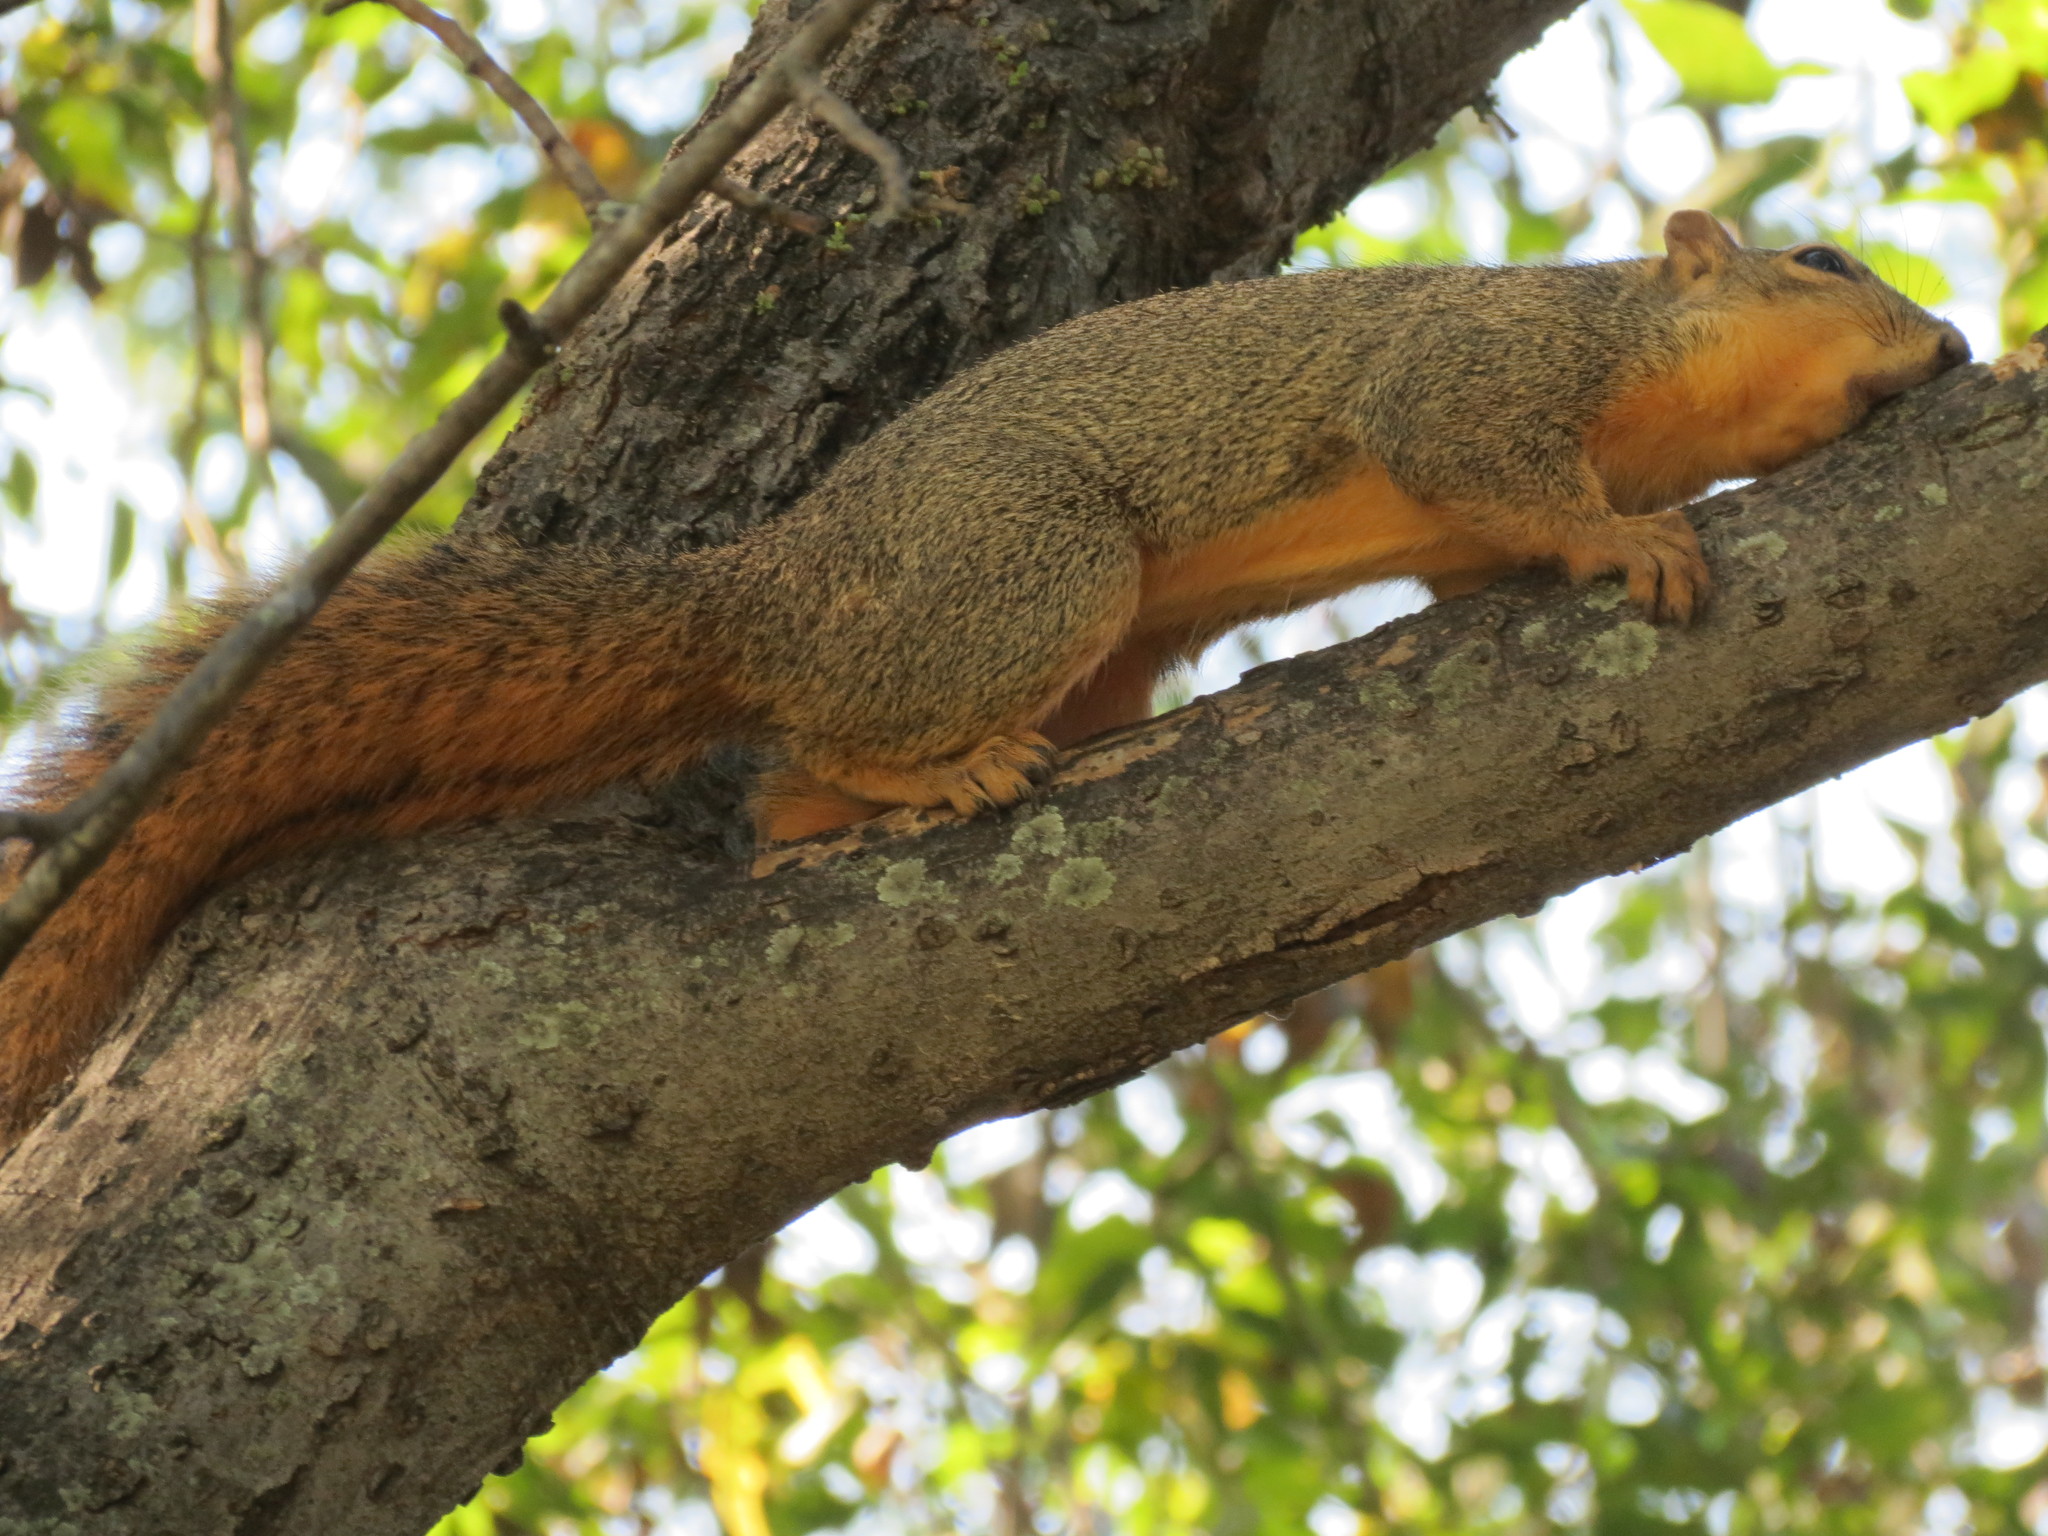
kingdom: Animalia
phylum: Chordata
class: Mammalia
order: Rodentia
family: Sciuridae
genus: Sciurus
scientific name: Sciurus niger
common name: Fox squirrel
